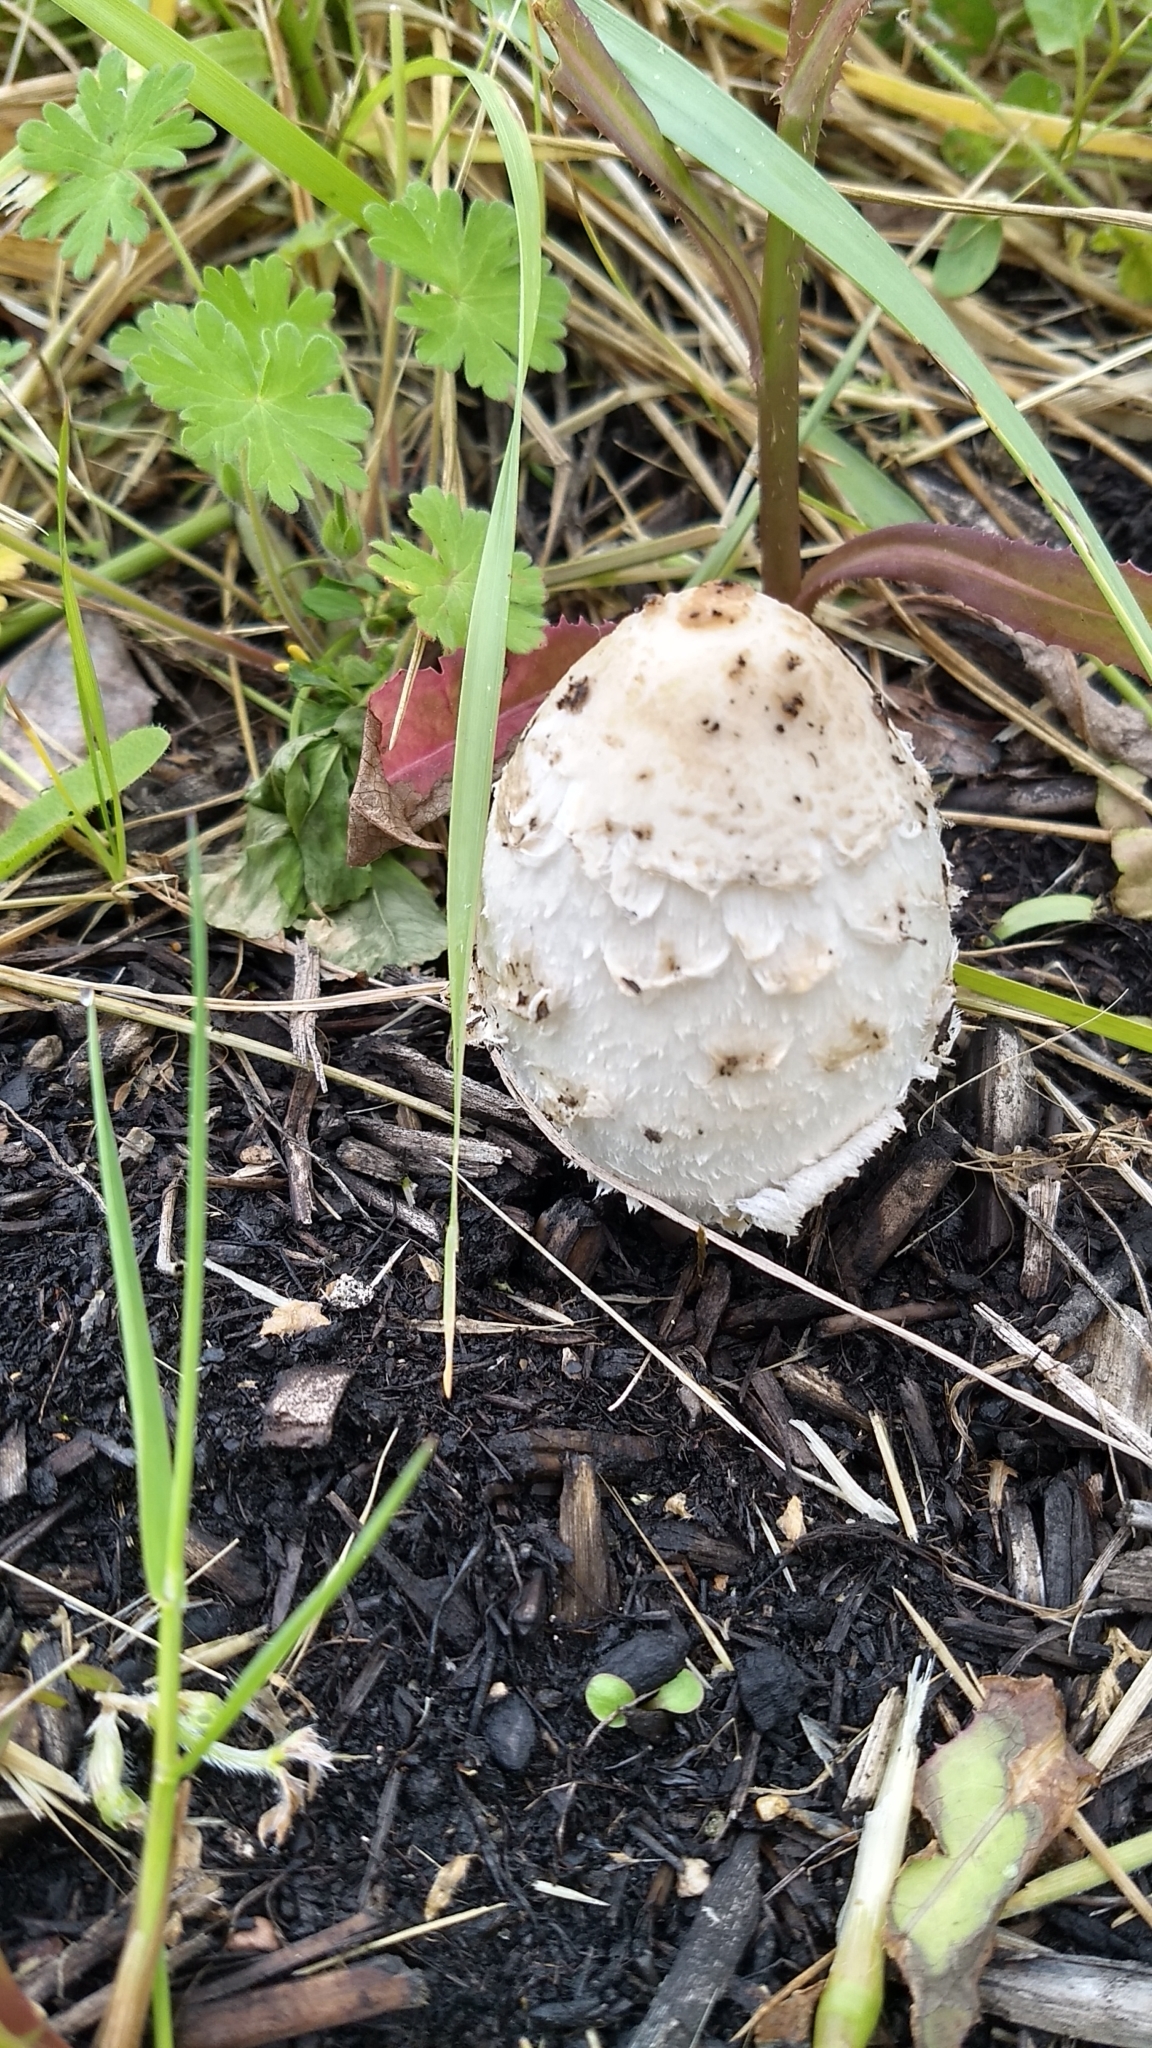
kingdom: Fungi
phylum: Basidiomycota
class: Agaricomycetes
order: Agaricales
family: Agaricaceae
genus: Coprinus
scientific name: Coprinus comatus
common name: Lawyer's wig
